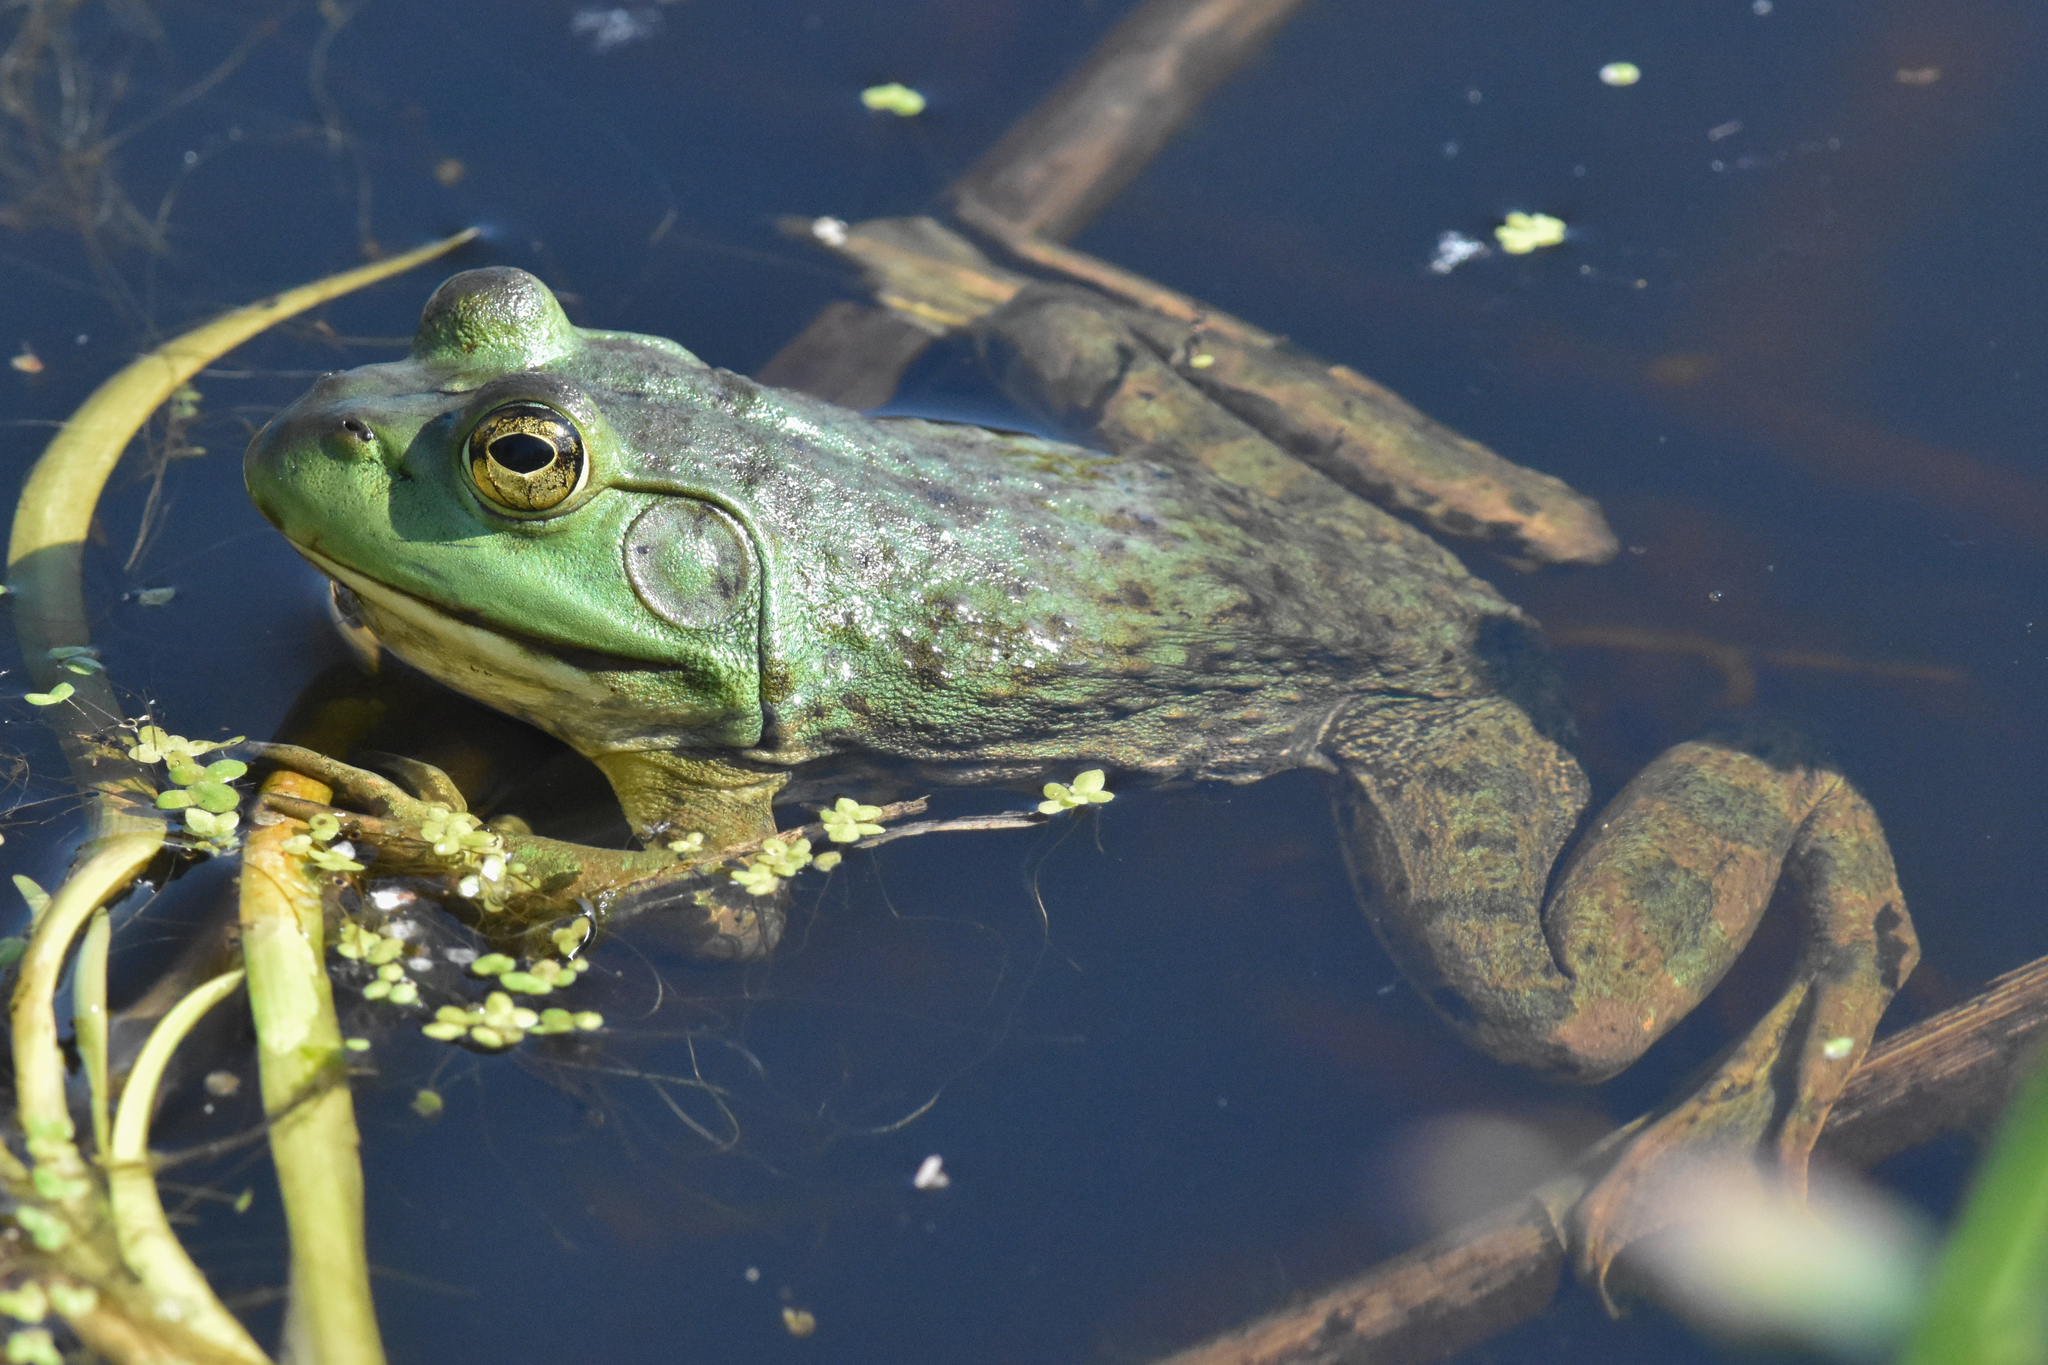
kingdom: Animalia
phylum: Chordata
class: Amphibia
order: Anura
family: Ranidae
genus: Lithobates
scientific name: Lithobates catesbeianus
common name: American bullfrog
